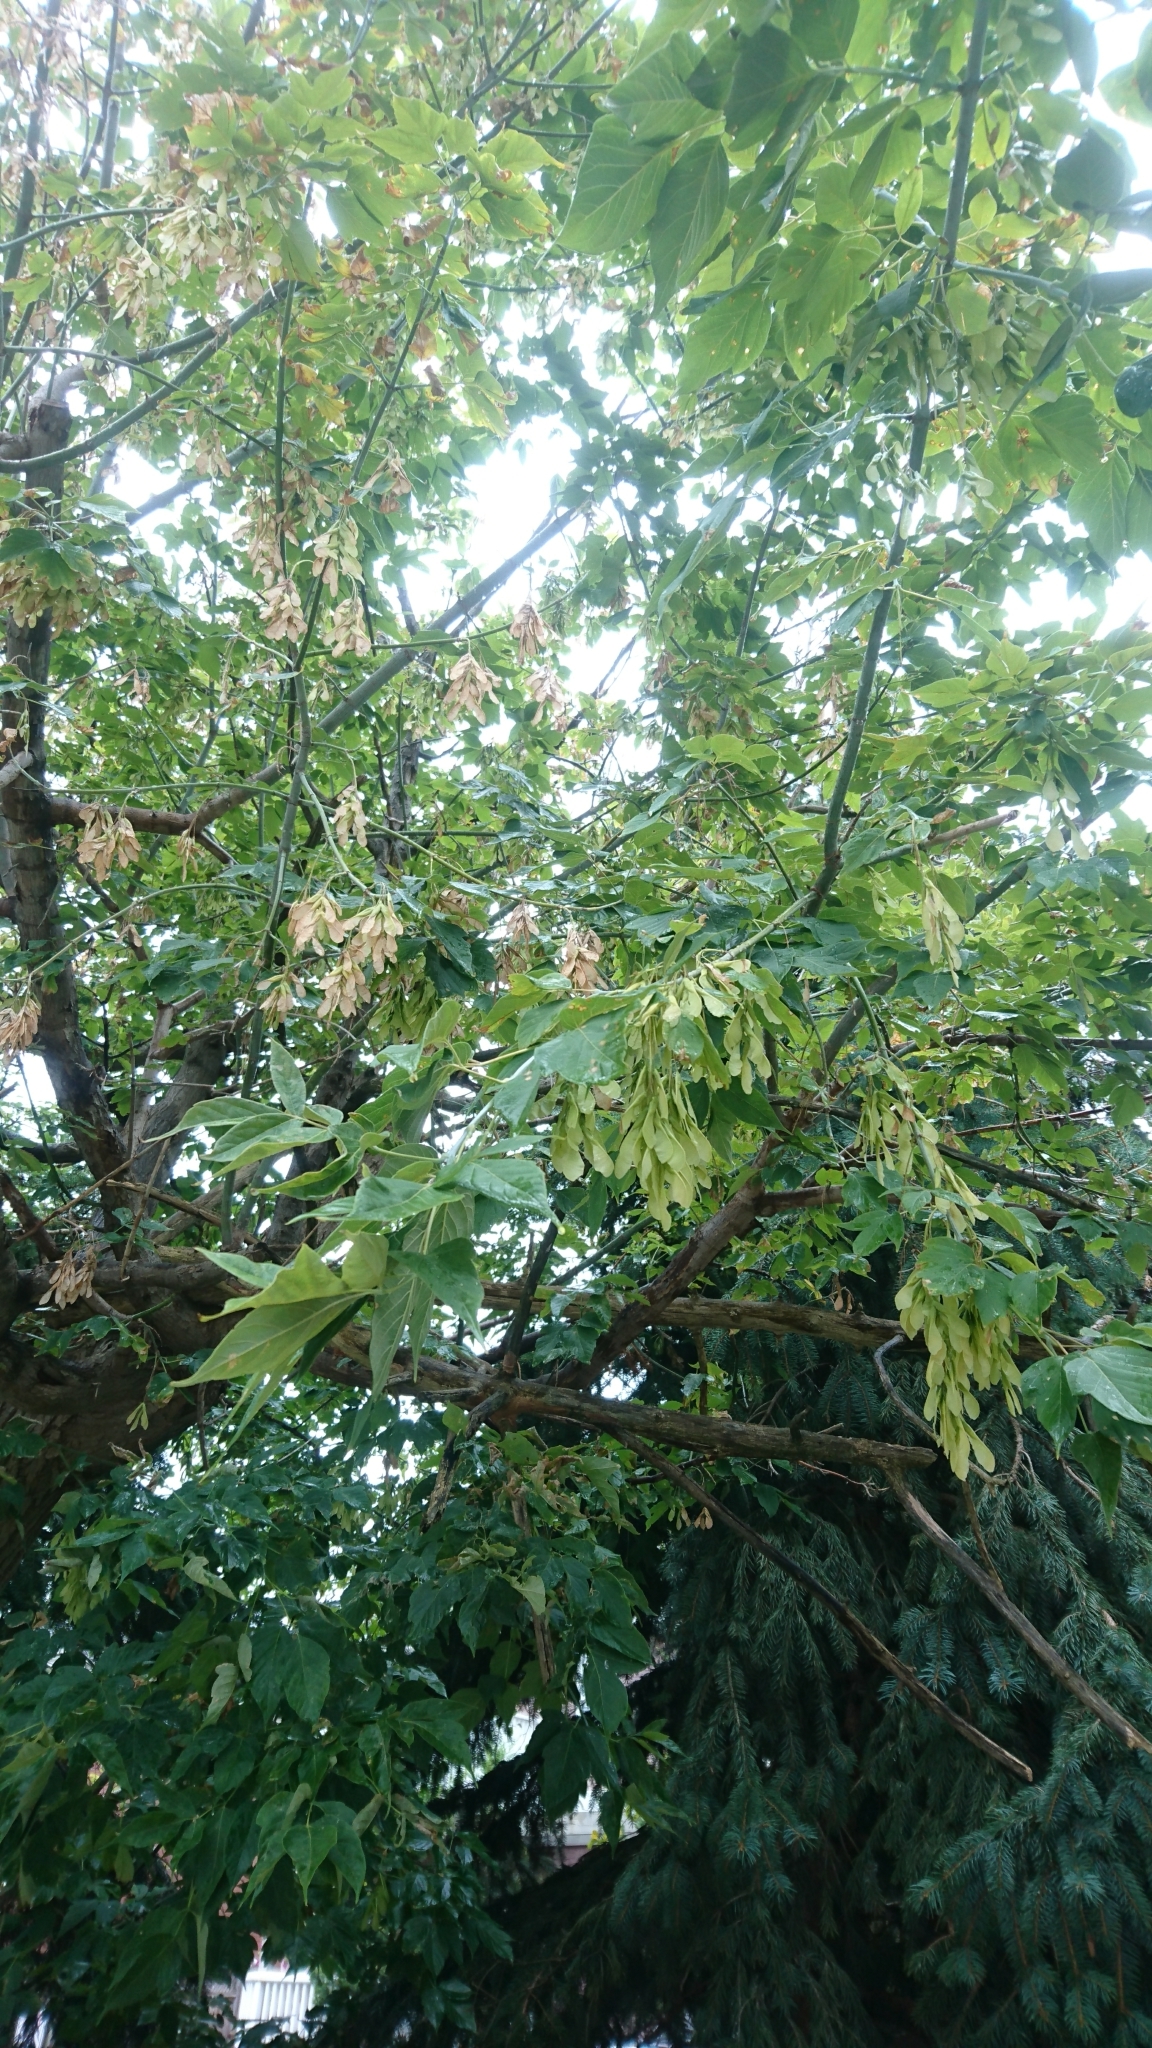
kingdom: Plantae
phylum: Tracheophyta
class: Magnoliopsida
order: Sapindales
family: Sapindaceae
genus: Acer
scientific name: Acer negundo
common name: Ashleaf maple
